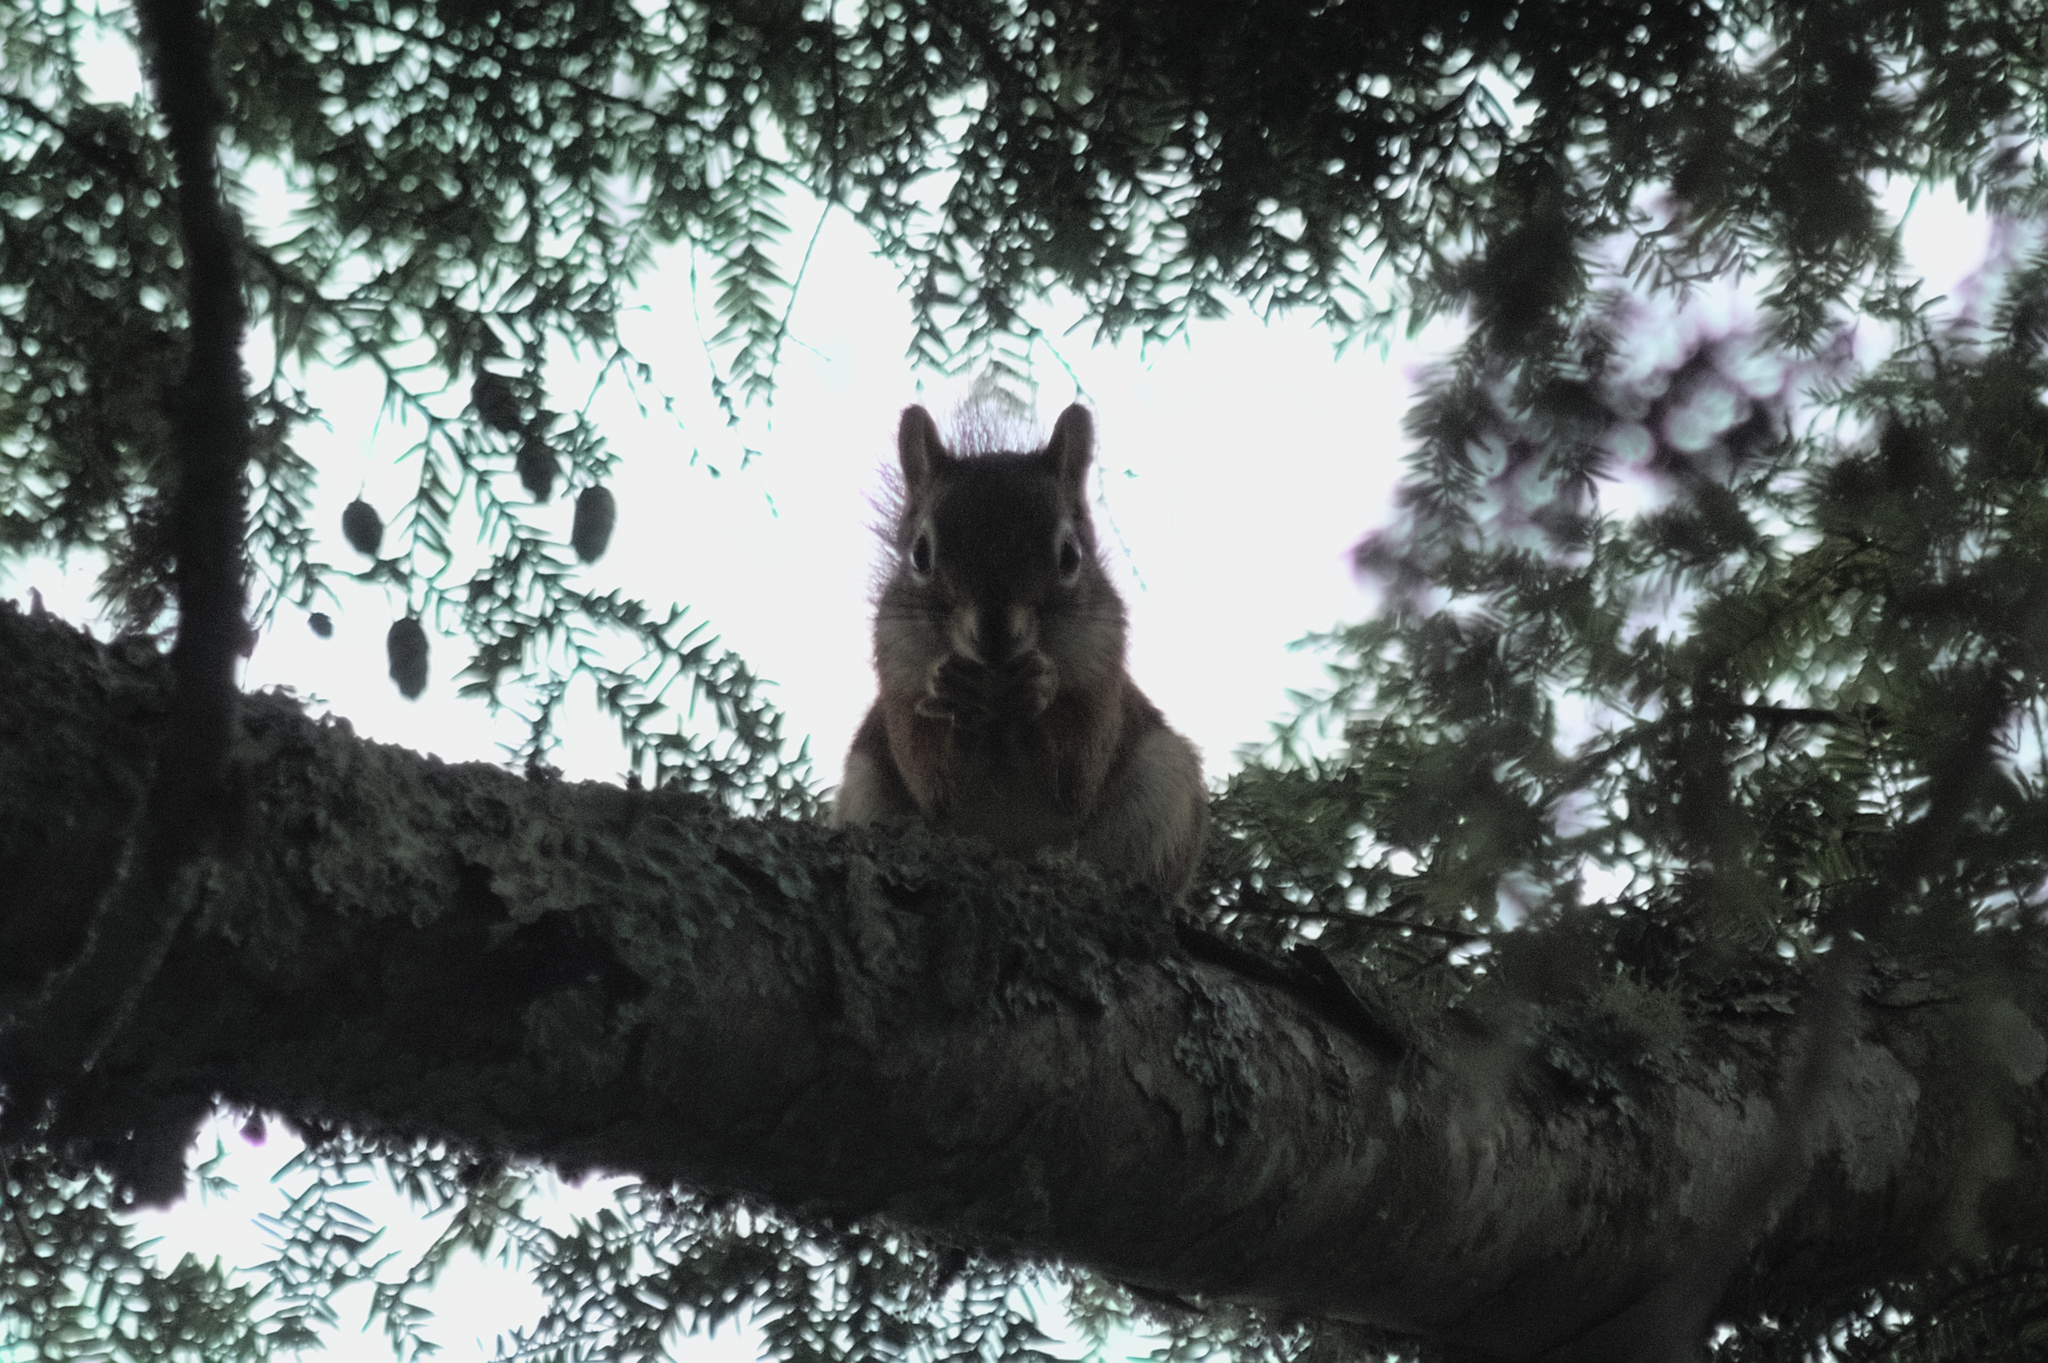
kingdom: Animalia
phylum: Chordata
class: Mammalia
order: Rodentia
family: Sciuridae
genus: Tamiasciurus
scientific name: Tamiasciurus hudsonicus
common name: Red squirrel
